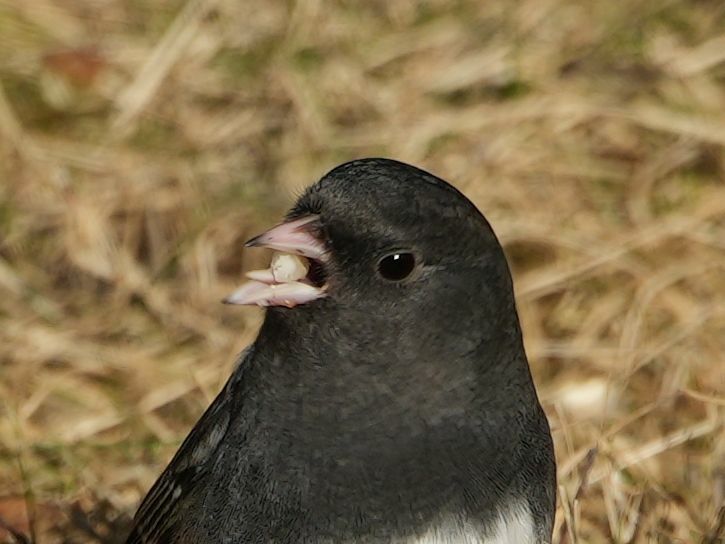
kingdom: Animalia
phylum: Chordata
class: Aves
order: Passeriformes
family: Passerellidae
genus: Junco
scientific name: Junco hyemalis
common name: Dark-eyed junco
